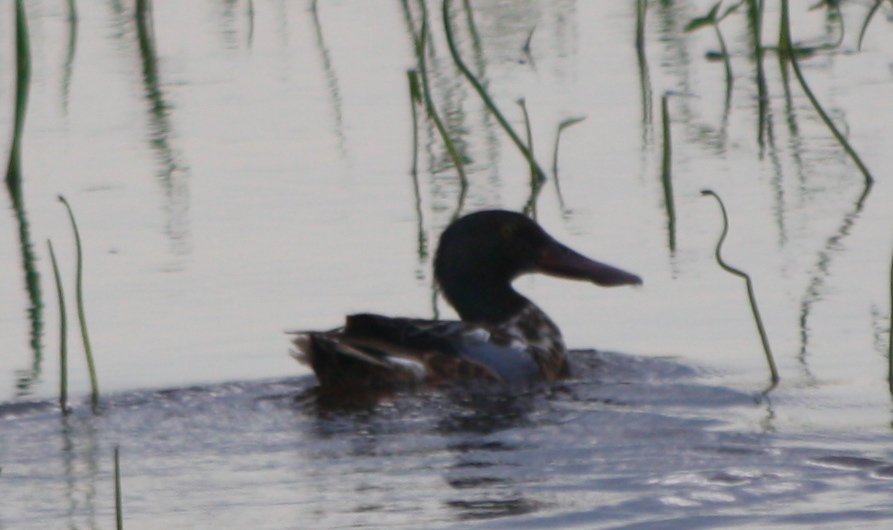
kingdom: Animalia
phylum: Chordata
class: Aves
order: Anseriformes
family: Anatidae
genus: Spatula
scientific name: Spatula clypeata
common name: Northern shoveler
